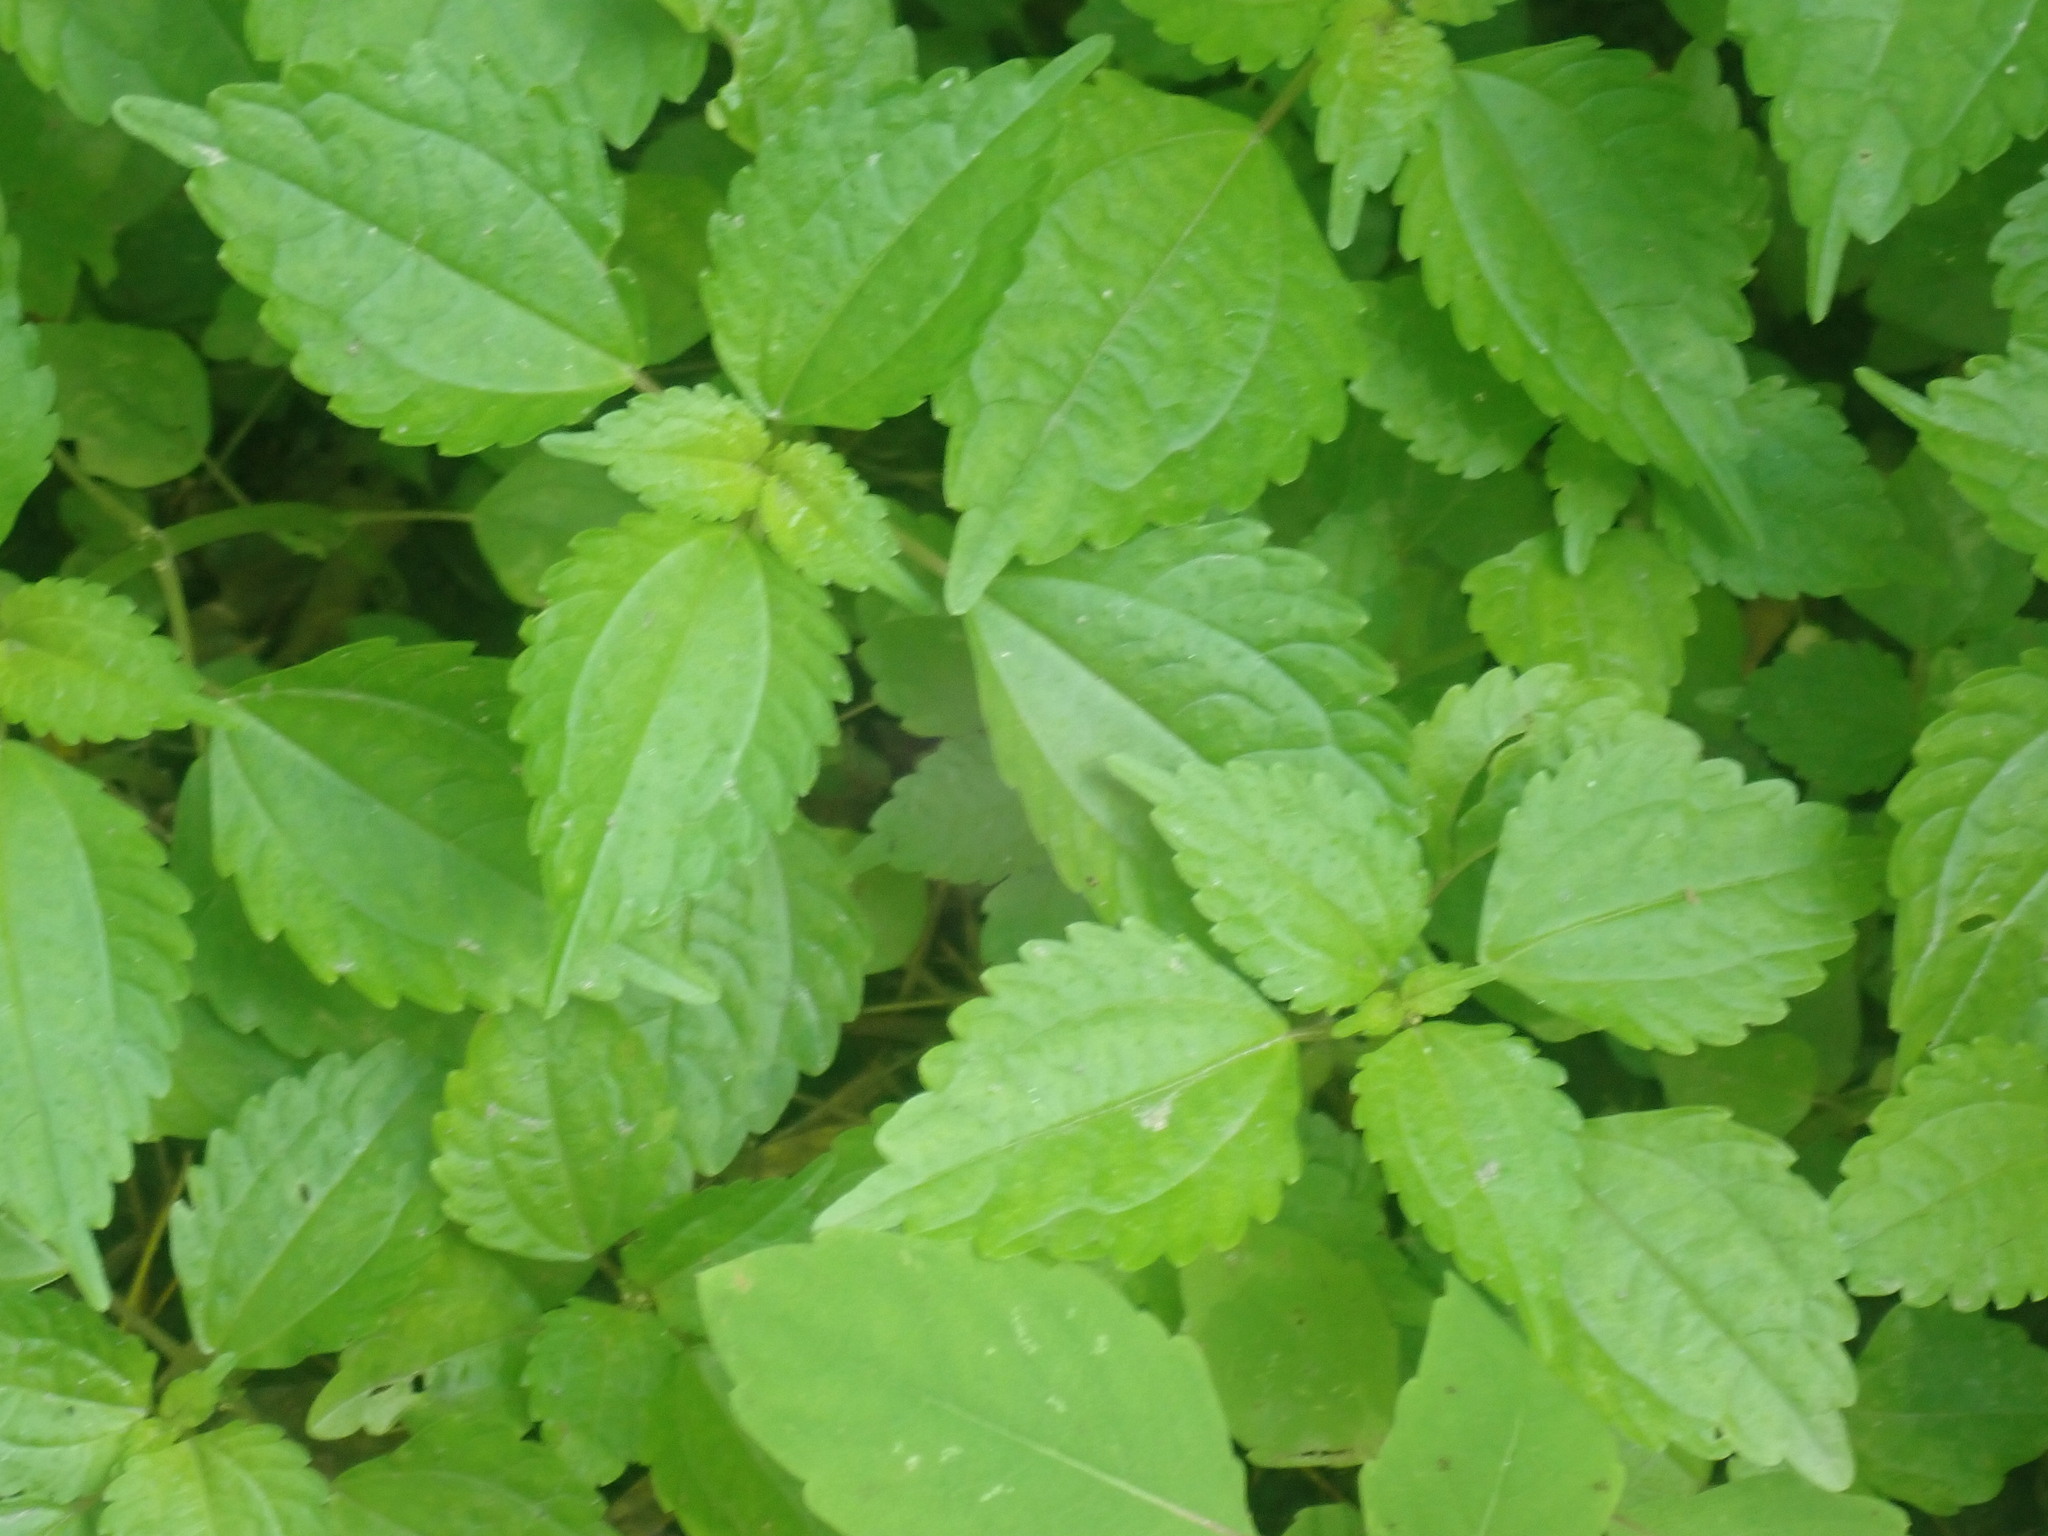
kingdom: Plantae
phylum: Tracheophyta
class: Magnoliopsida
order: Rosales
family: Urticaceae
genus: Pilea
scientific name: Pilea pumila
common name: Clearweed
